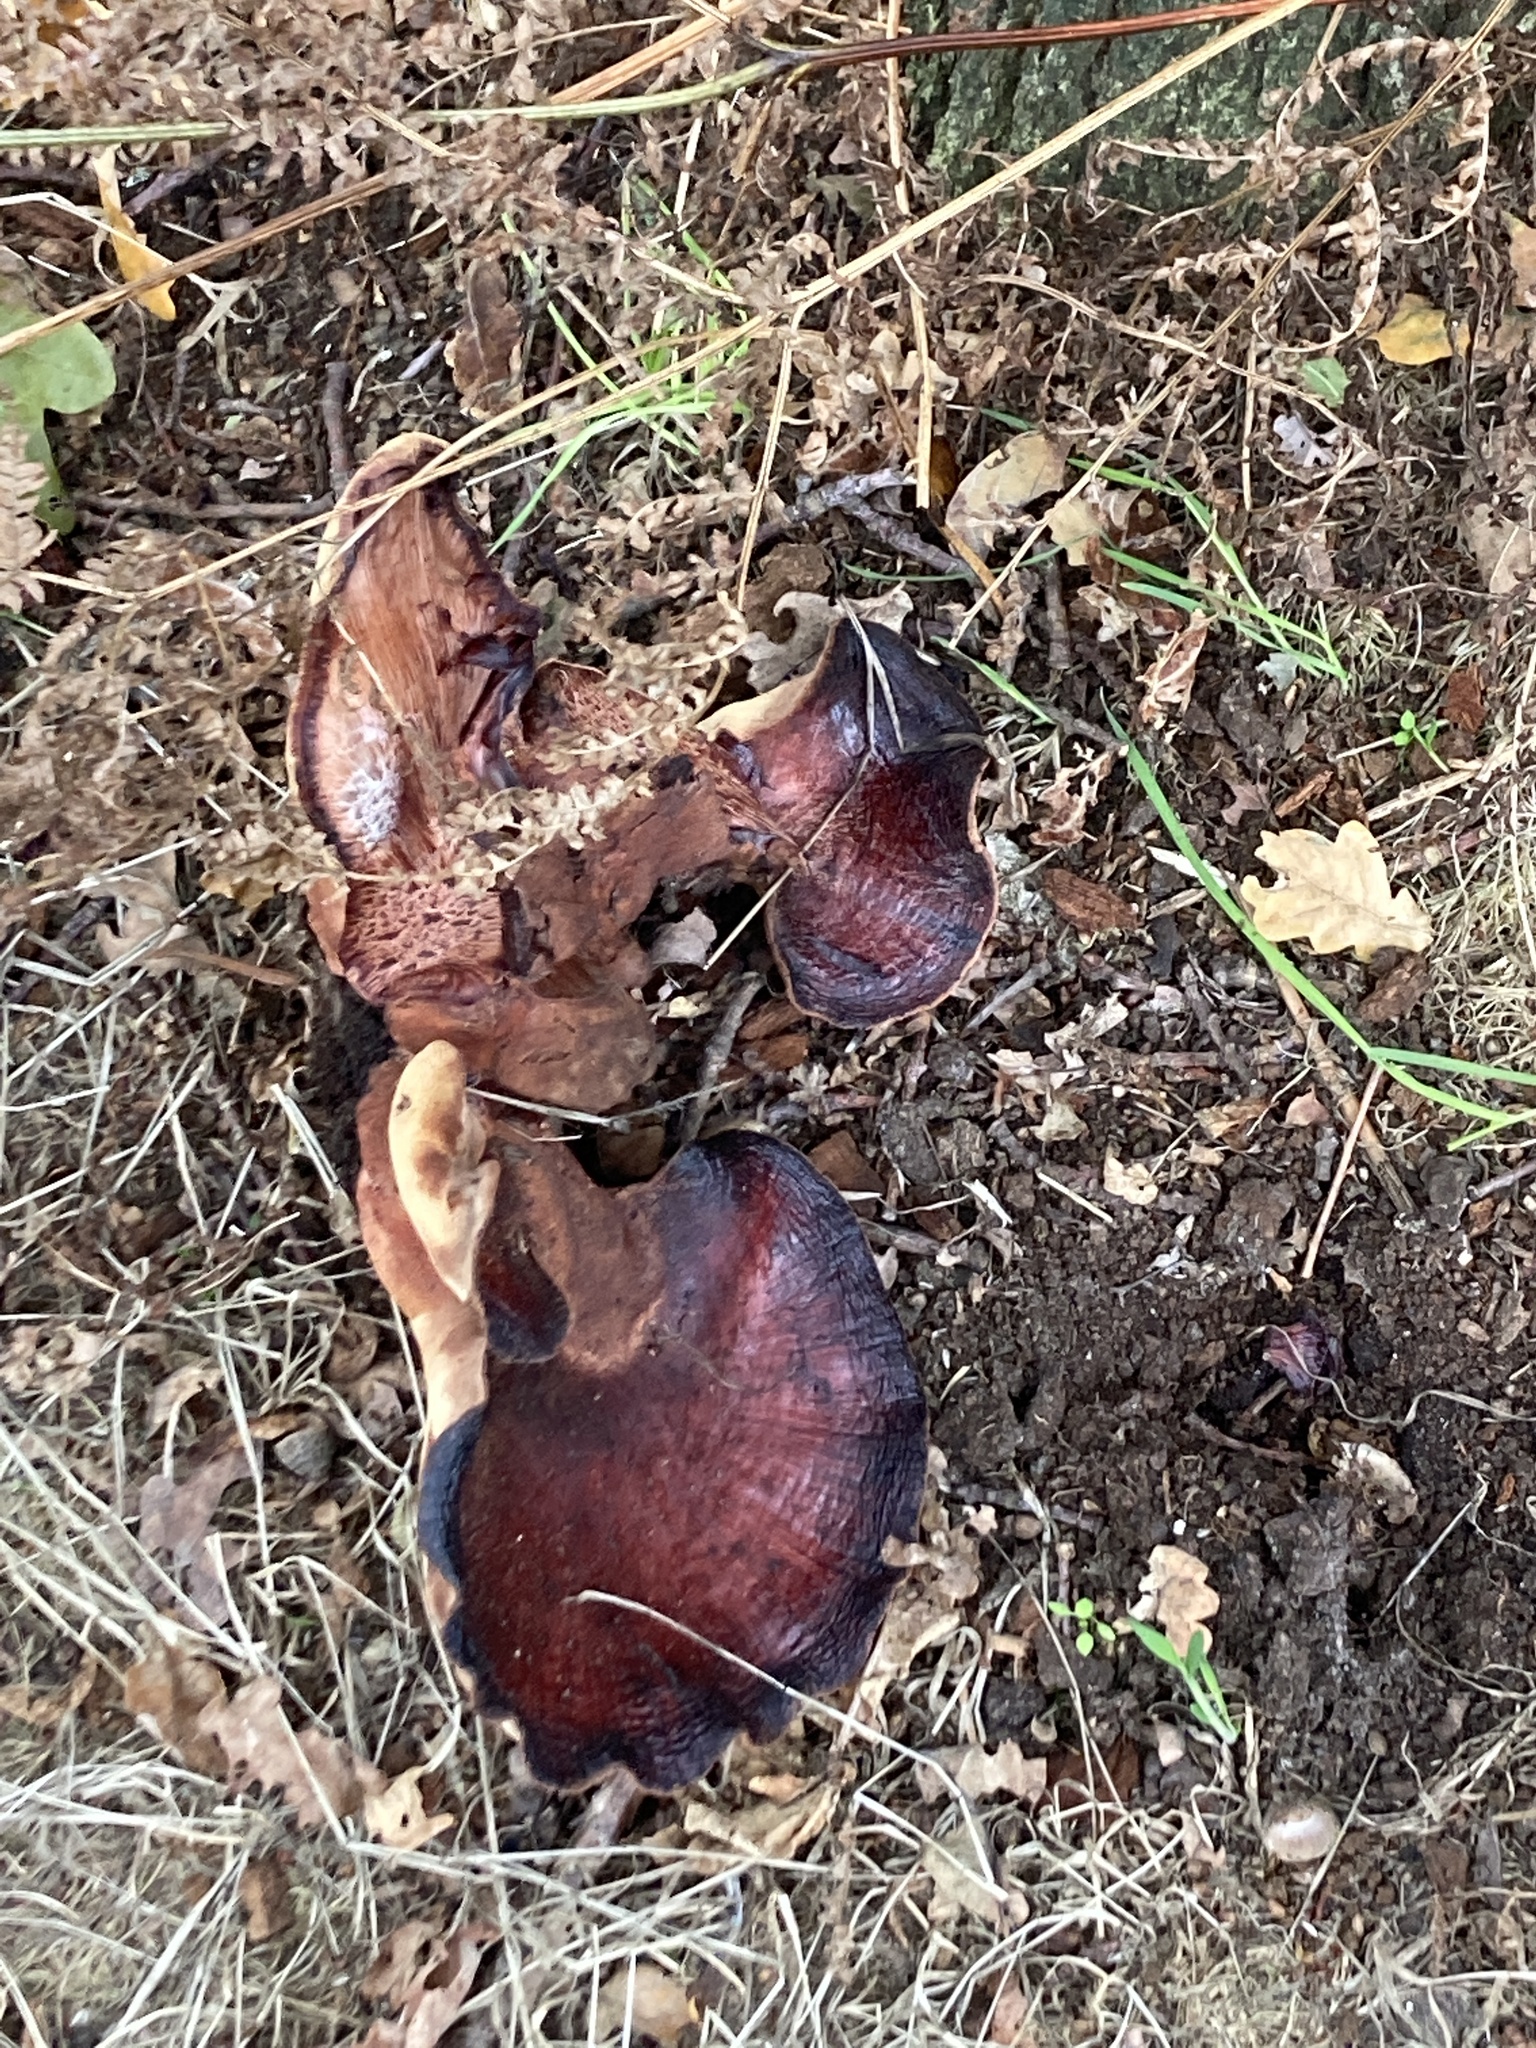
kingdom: Fungi
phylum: Basidiomycota
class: Agaricomycetes
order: Agaricales
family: Fistulinaceae
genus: Fistulina
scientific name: Fistulina hepatica
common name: Beef-steak fungus
